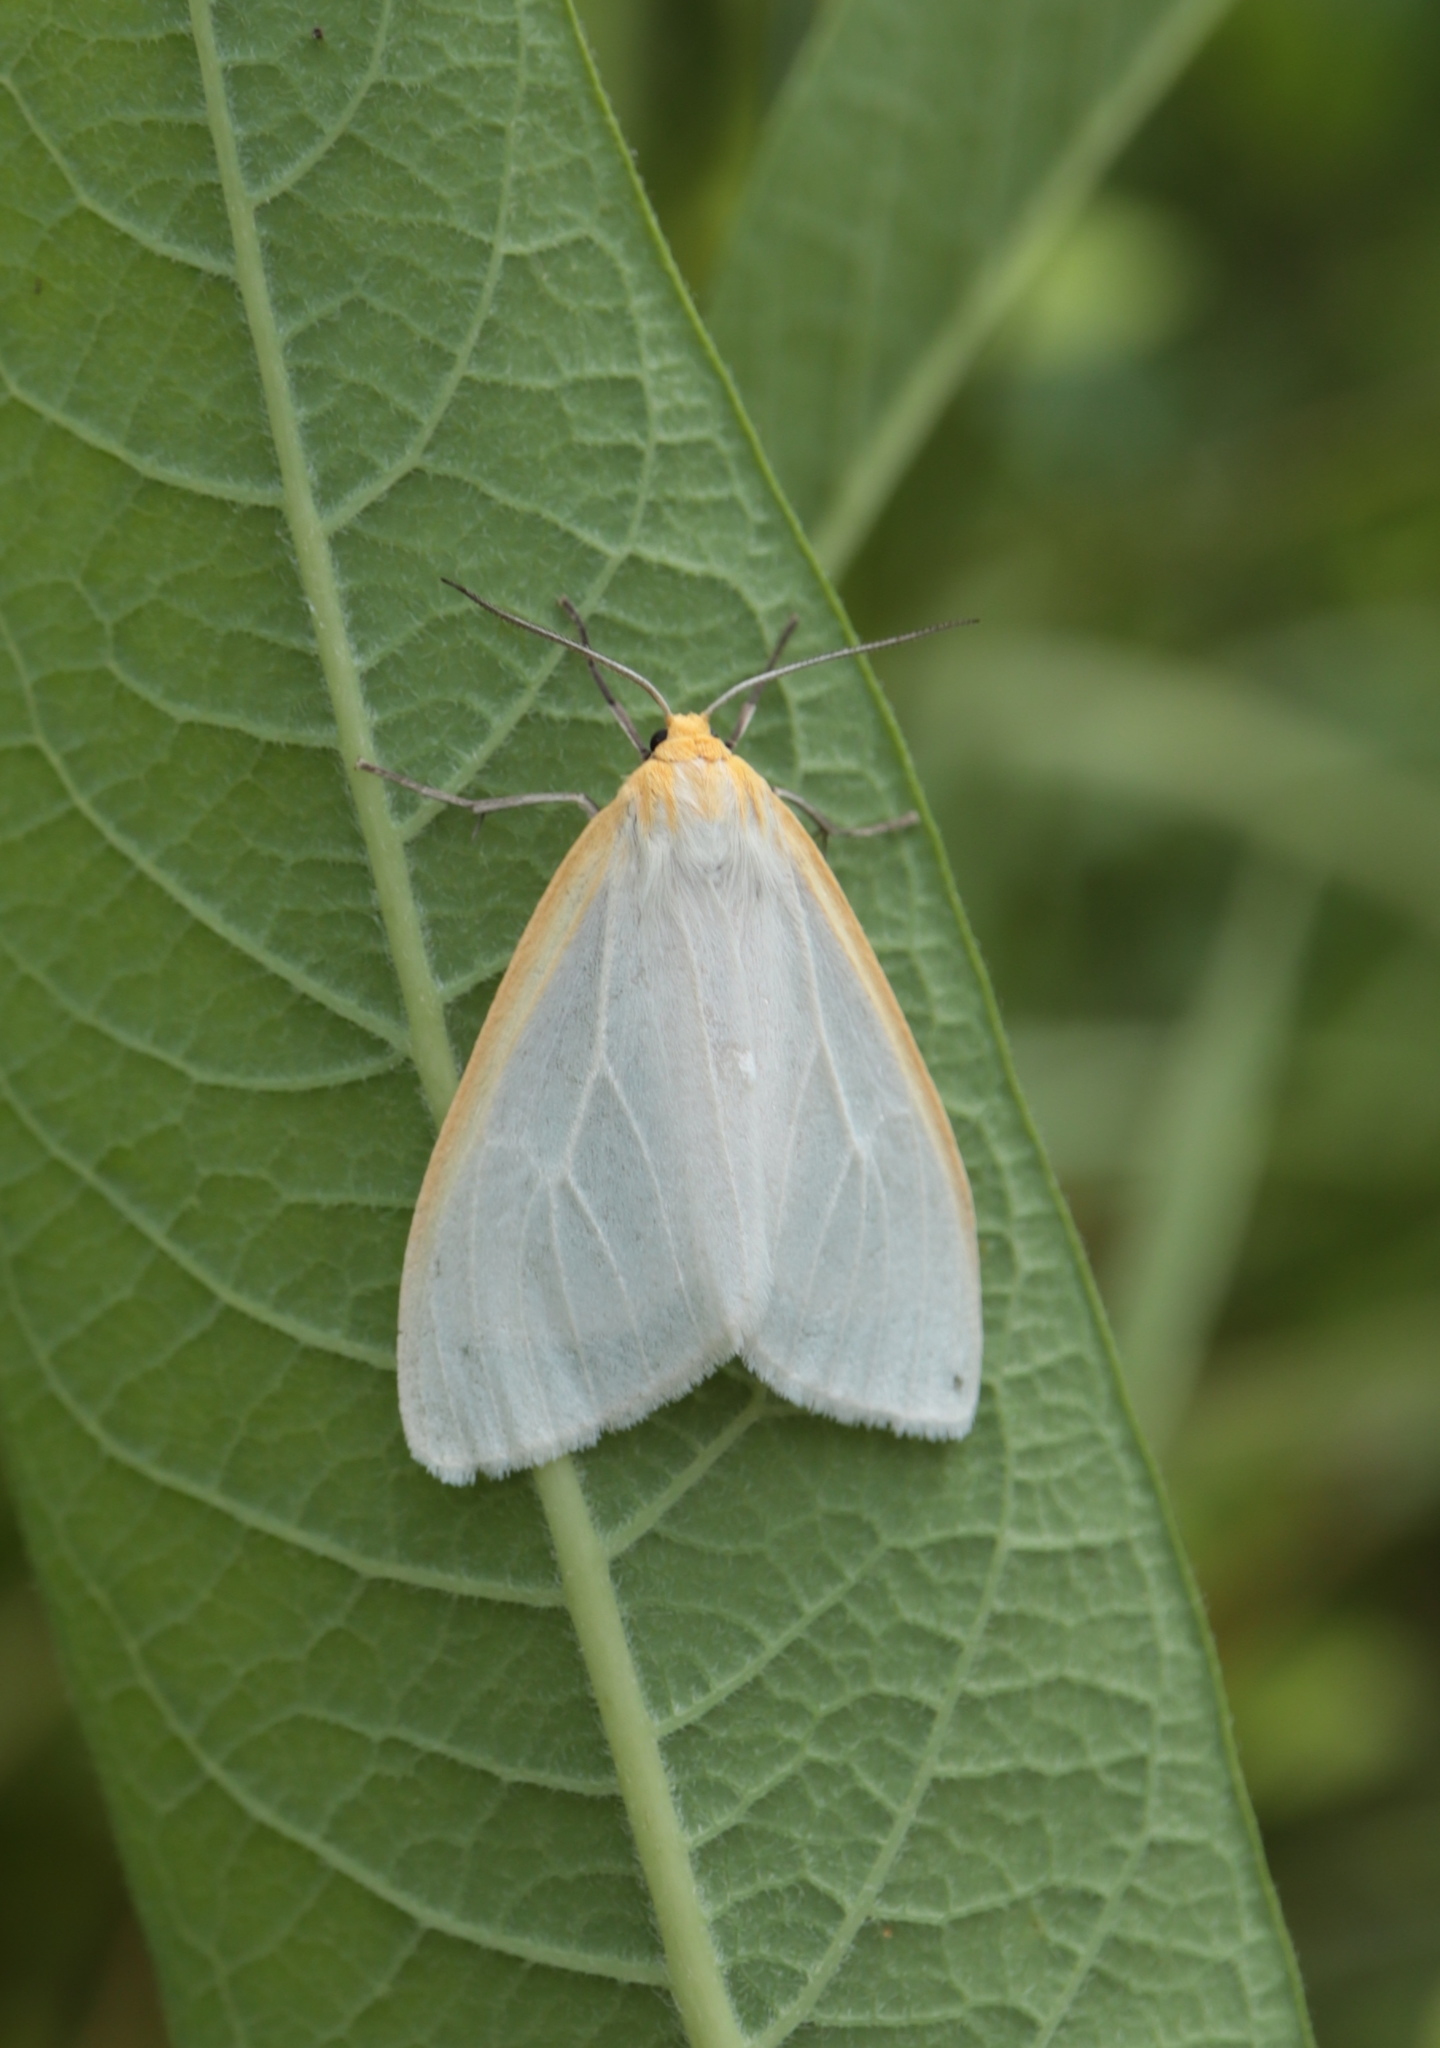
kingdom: Animalia
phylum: Arthropoda
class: Insecta
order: Lepidoptera
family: Erebidae
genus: Cycnia
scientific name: Cycnia tenera
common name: Delicate cycnia moth
